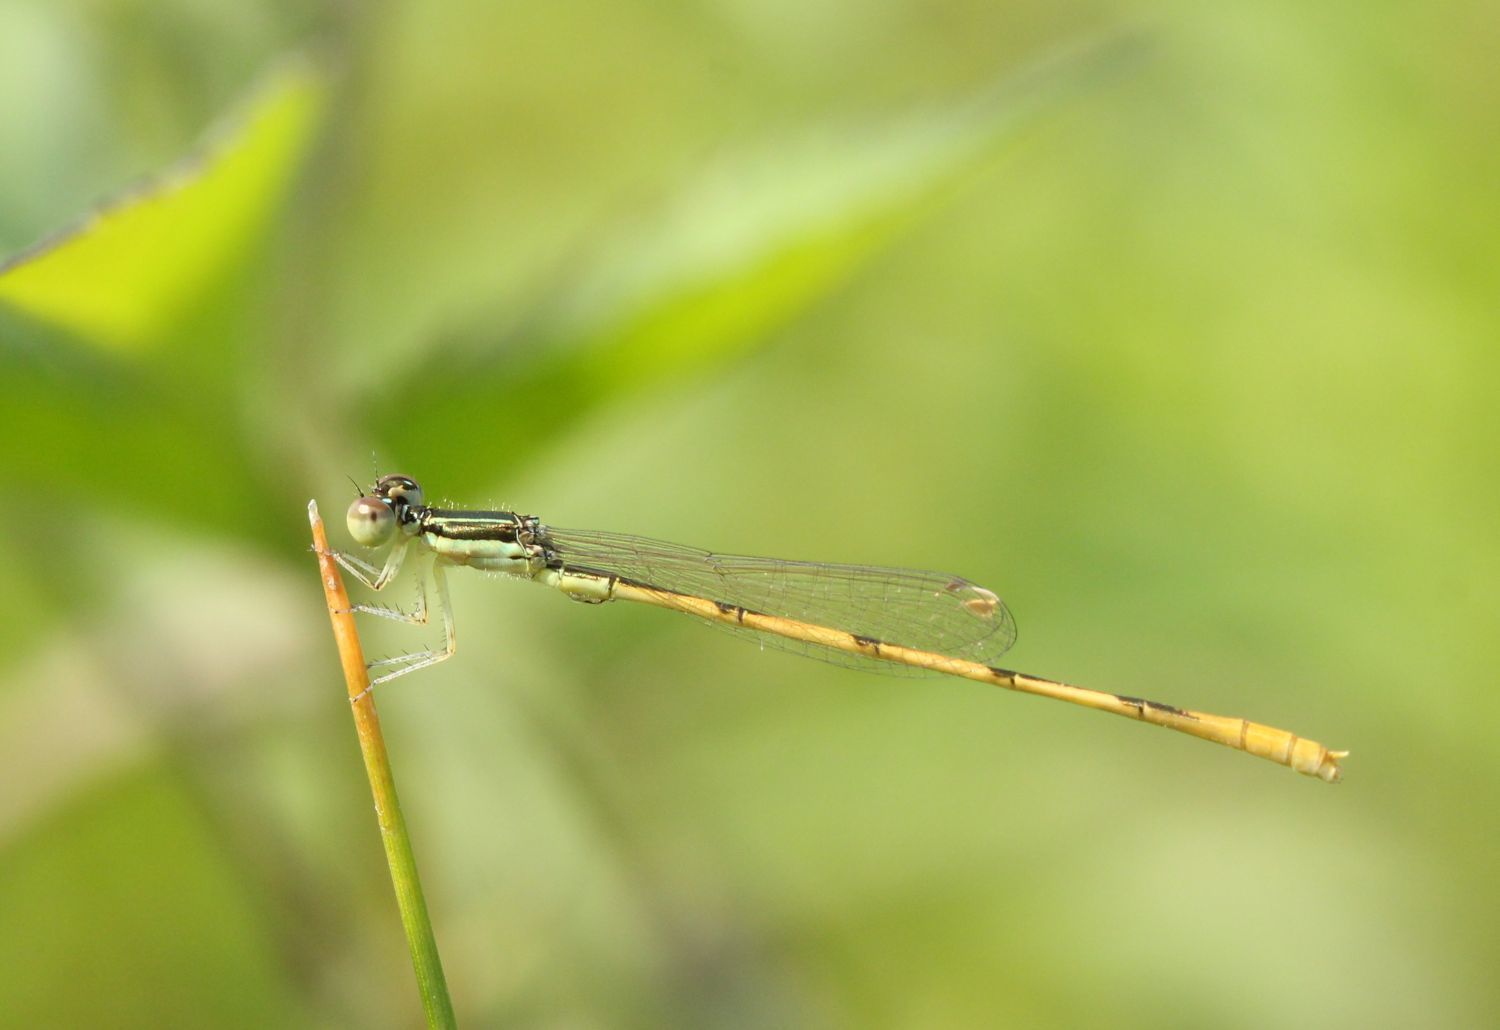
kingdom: Animalia
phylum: Arthropoda
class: Insecta
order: Odonata
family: Coenagrionidae
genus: Ischnura
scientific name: Ischnura hastata
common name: Citrine forktail
